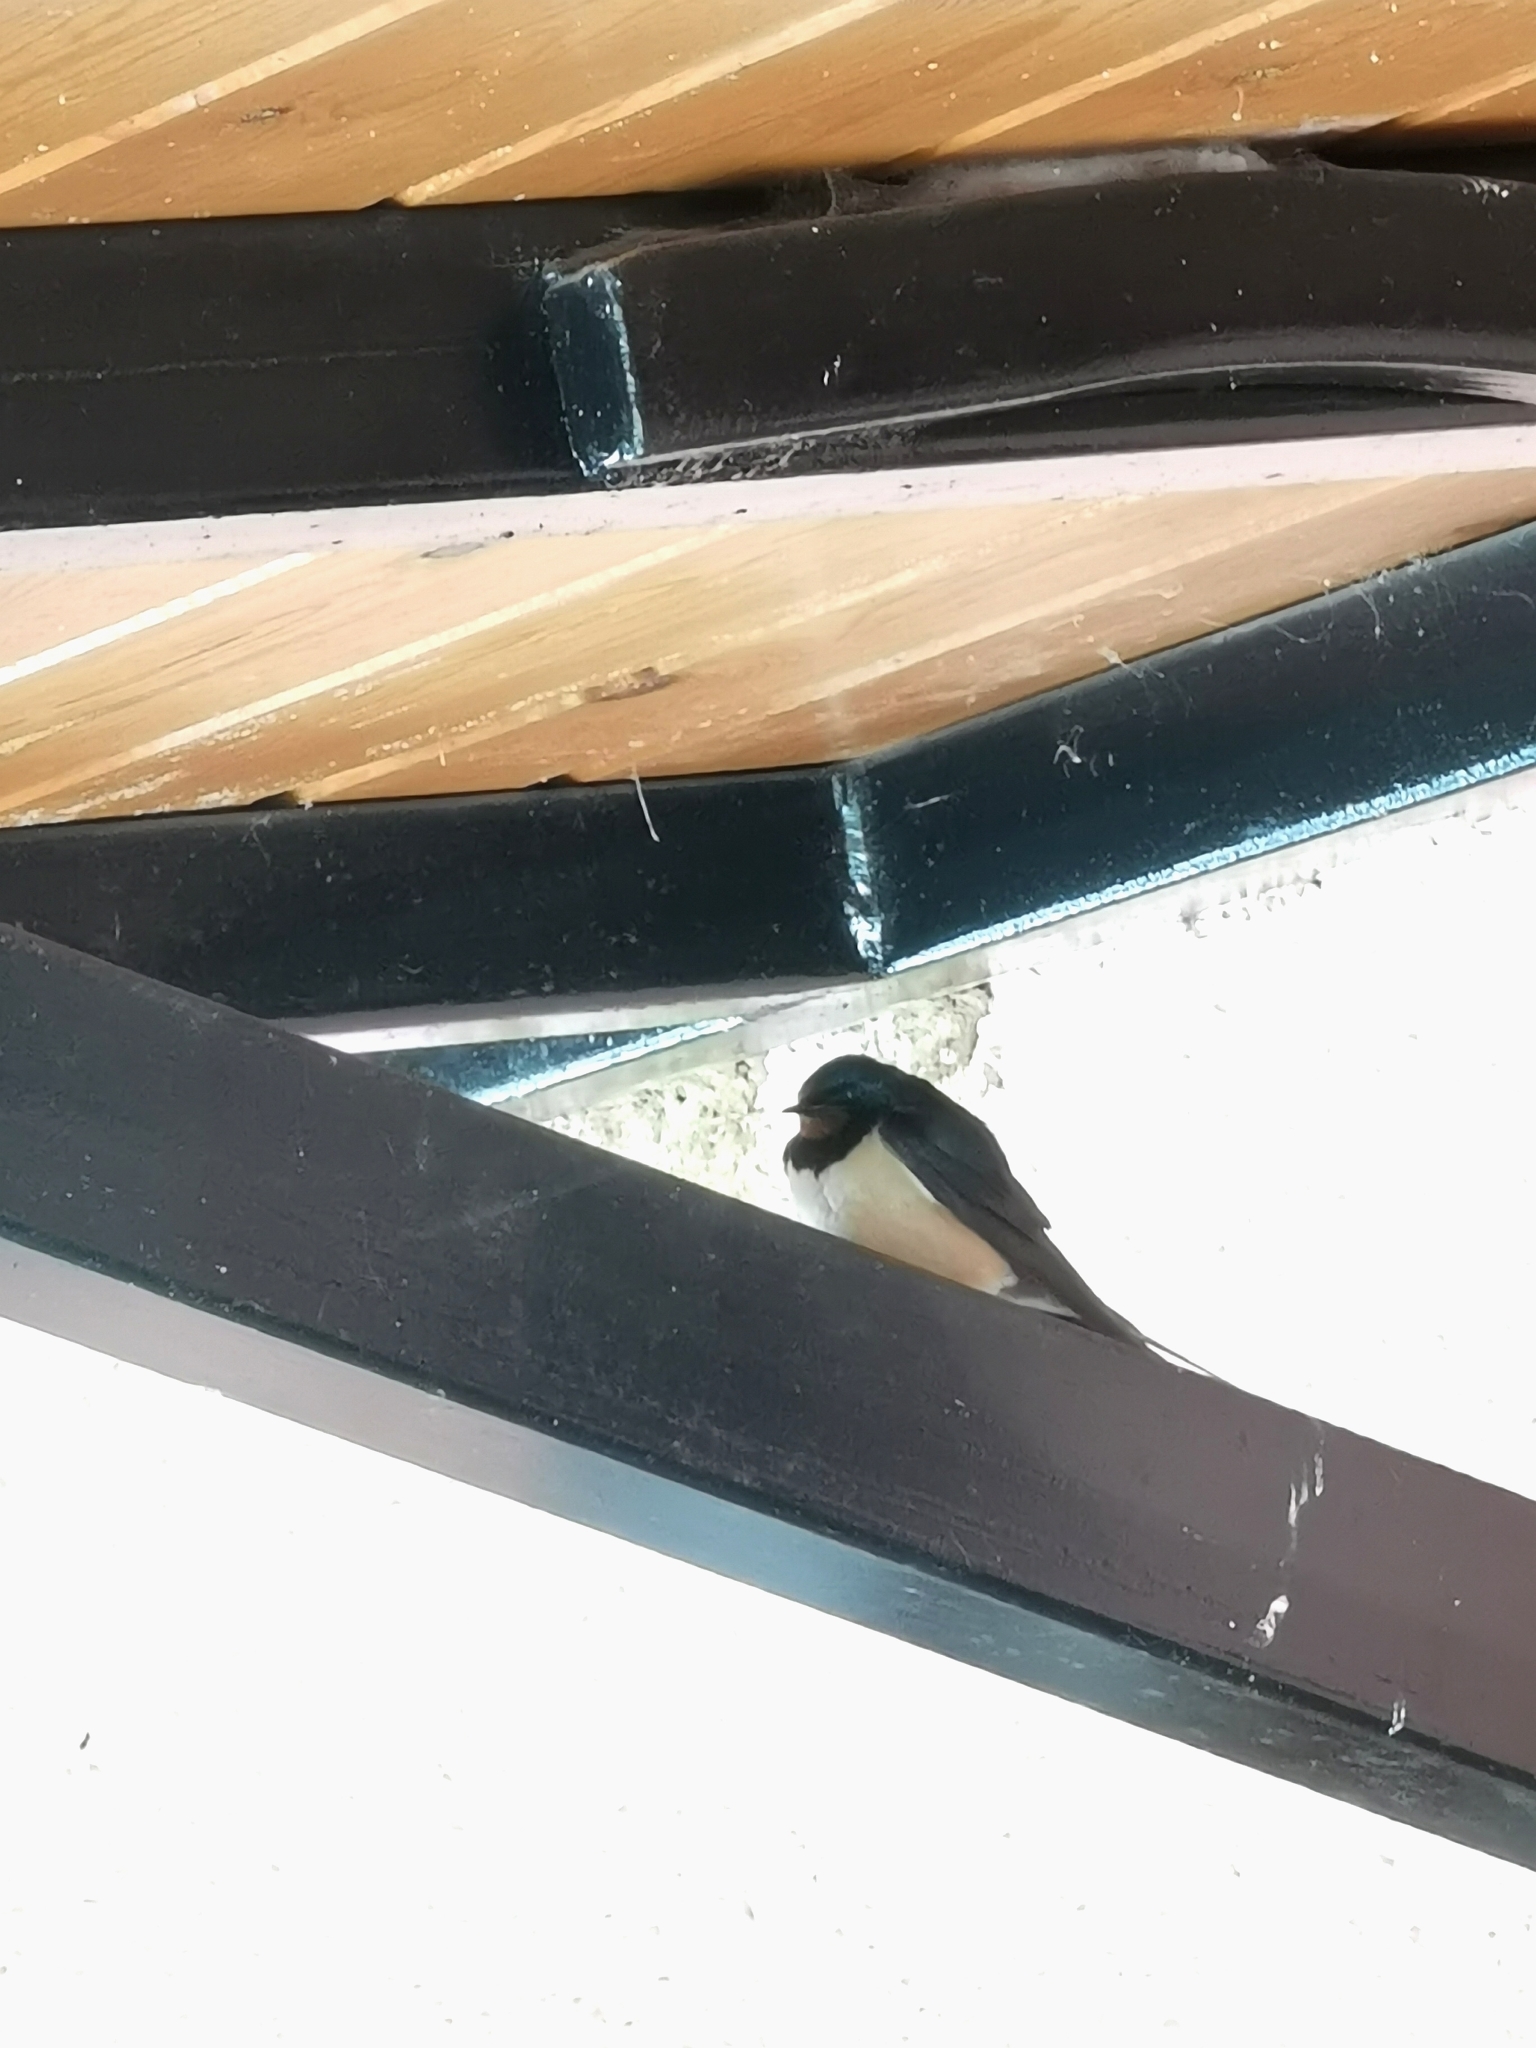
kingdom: Animalia
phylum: Chordata
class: Aves
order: Passeriformes
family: Hirundinidae
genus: Hirundo
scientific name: Hirundo rustica
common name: Barn swallow
